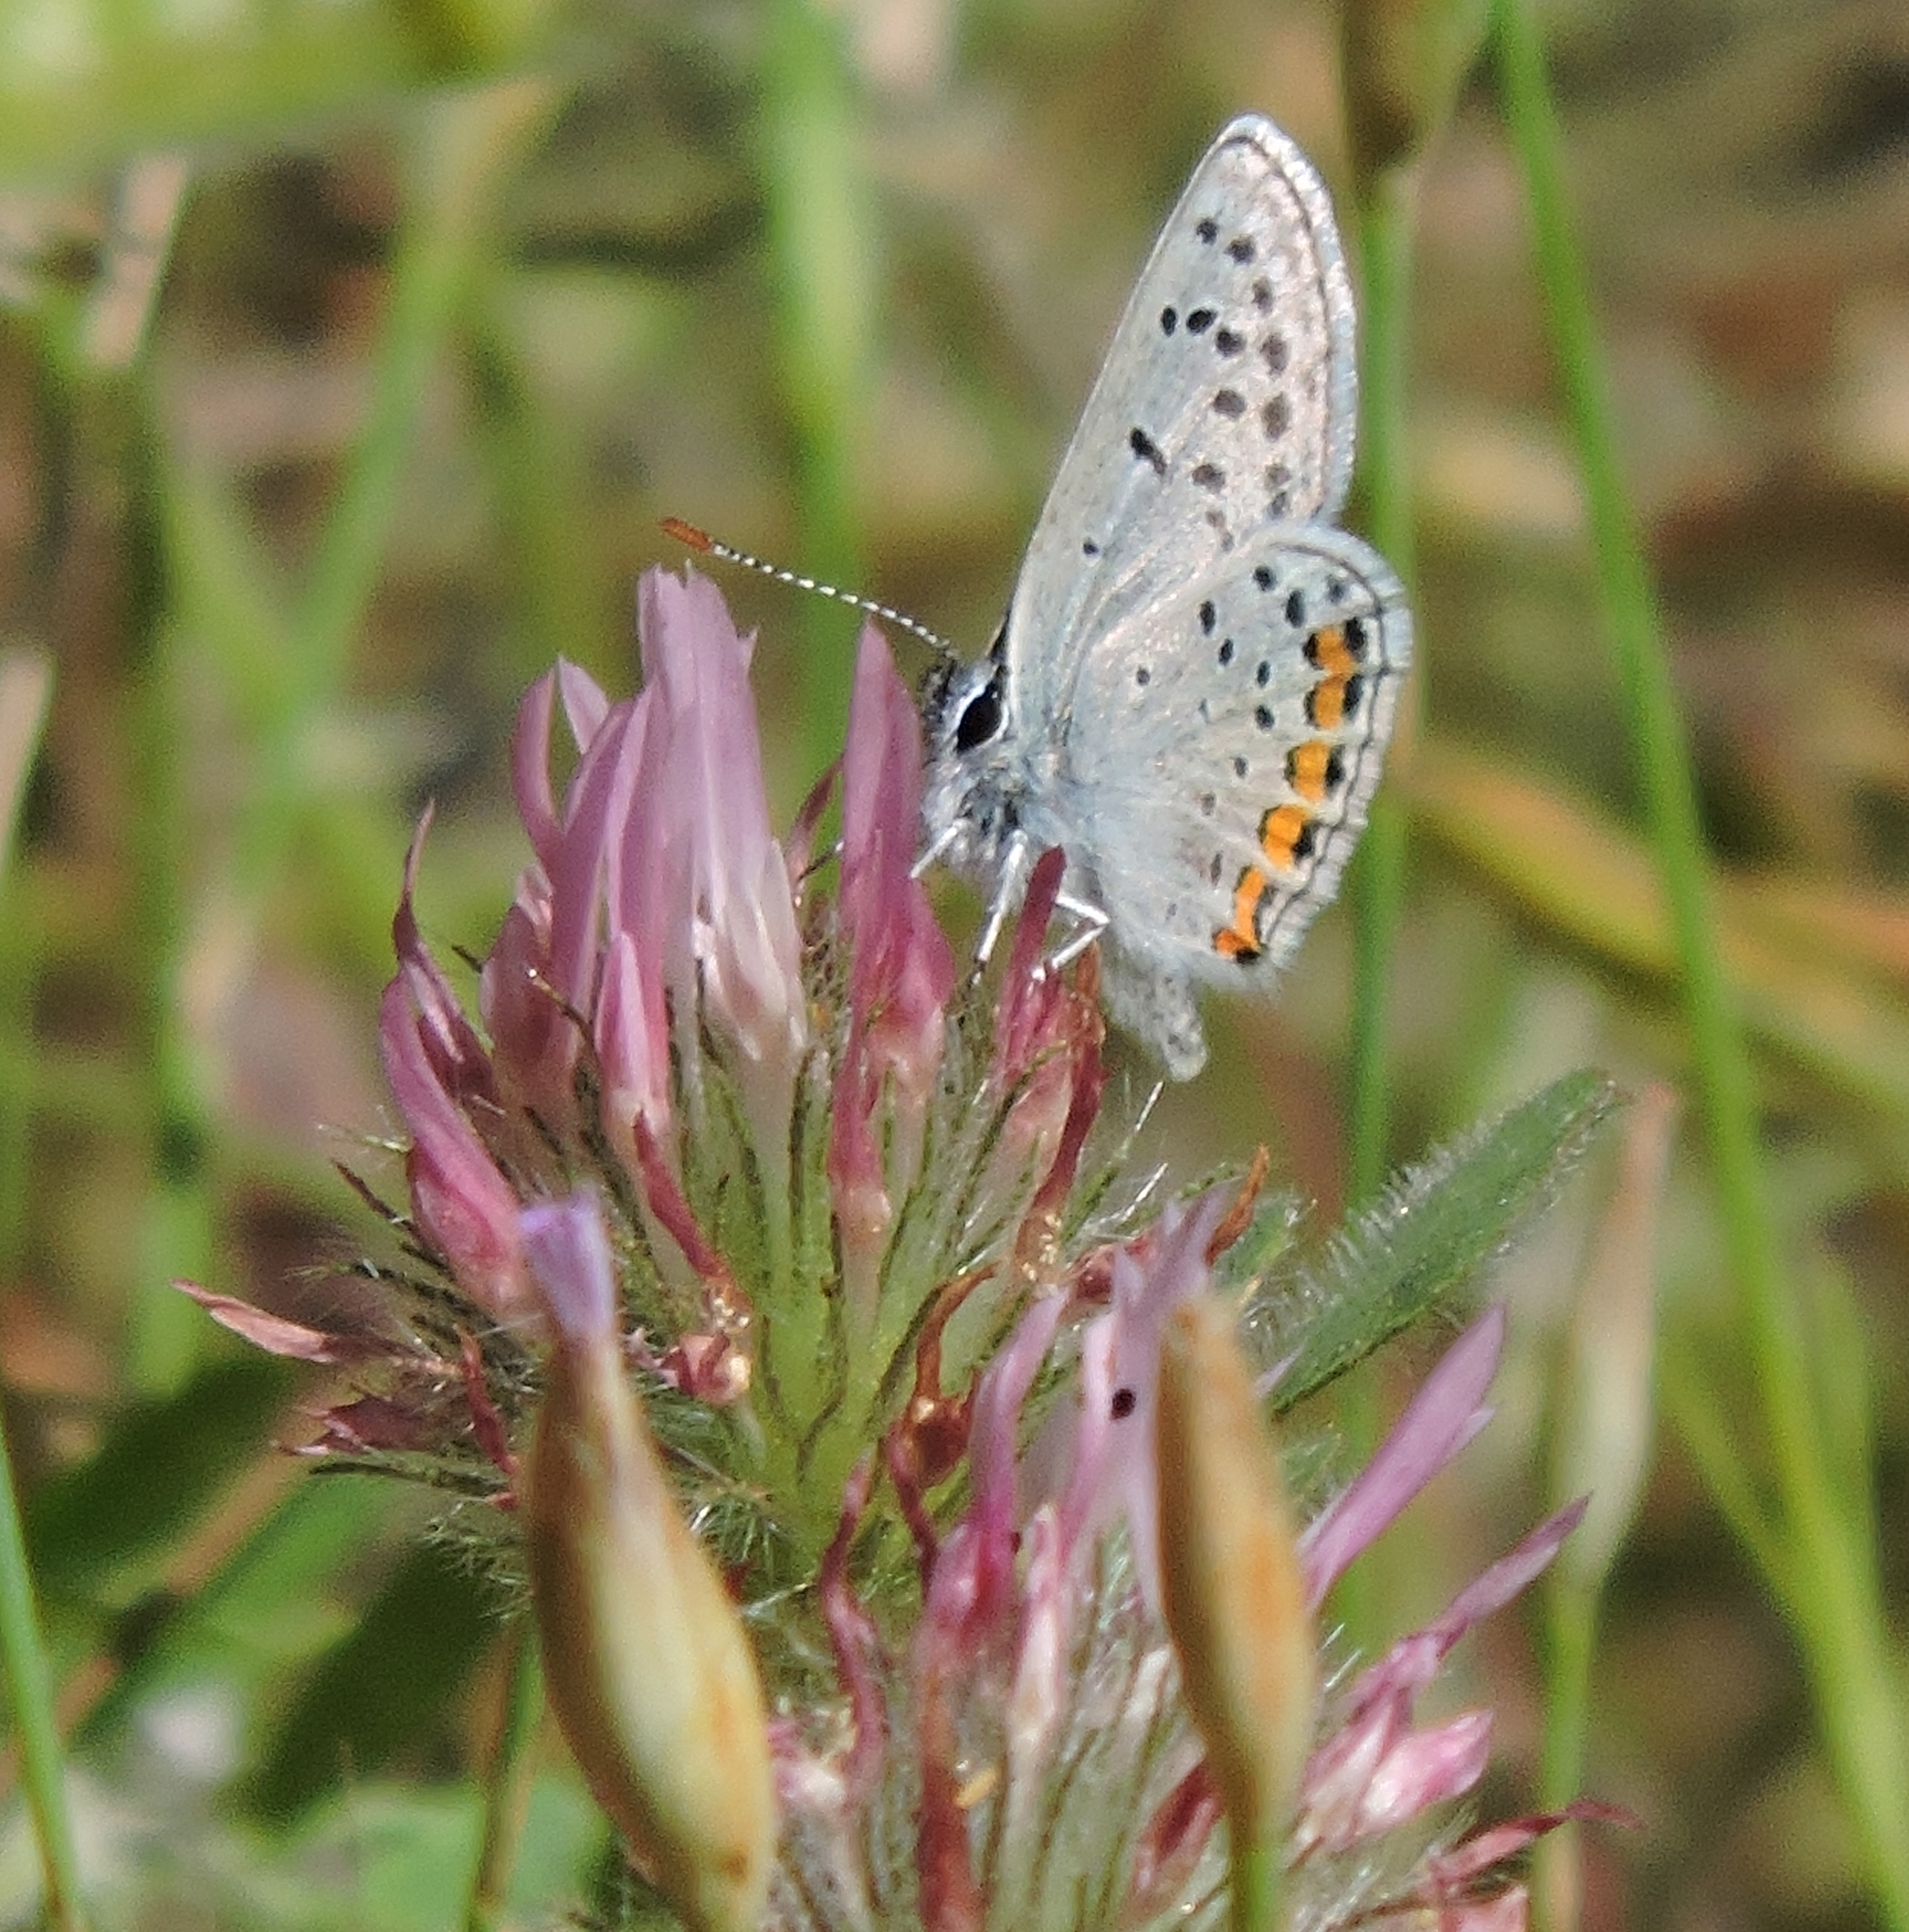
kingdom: Animalia
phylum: Arthropoda
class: Insecta
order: Lepidoptera
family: Lycaenidae
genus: Icaricia
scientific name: Icaricia acmon
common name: Acmon blue
